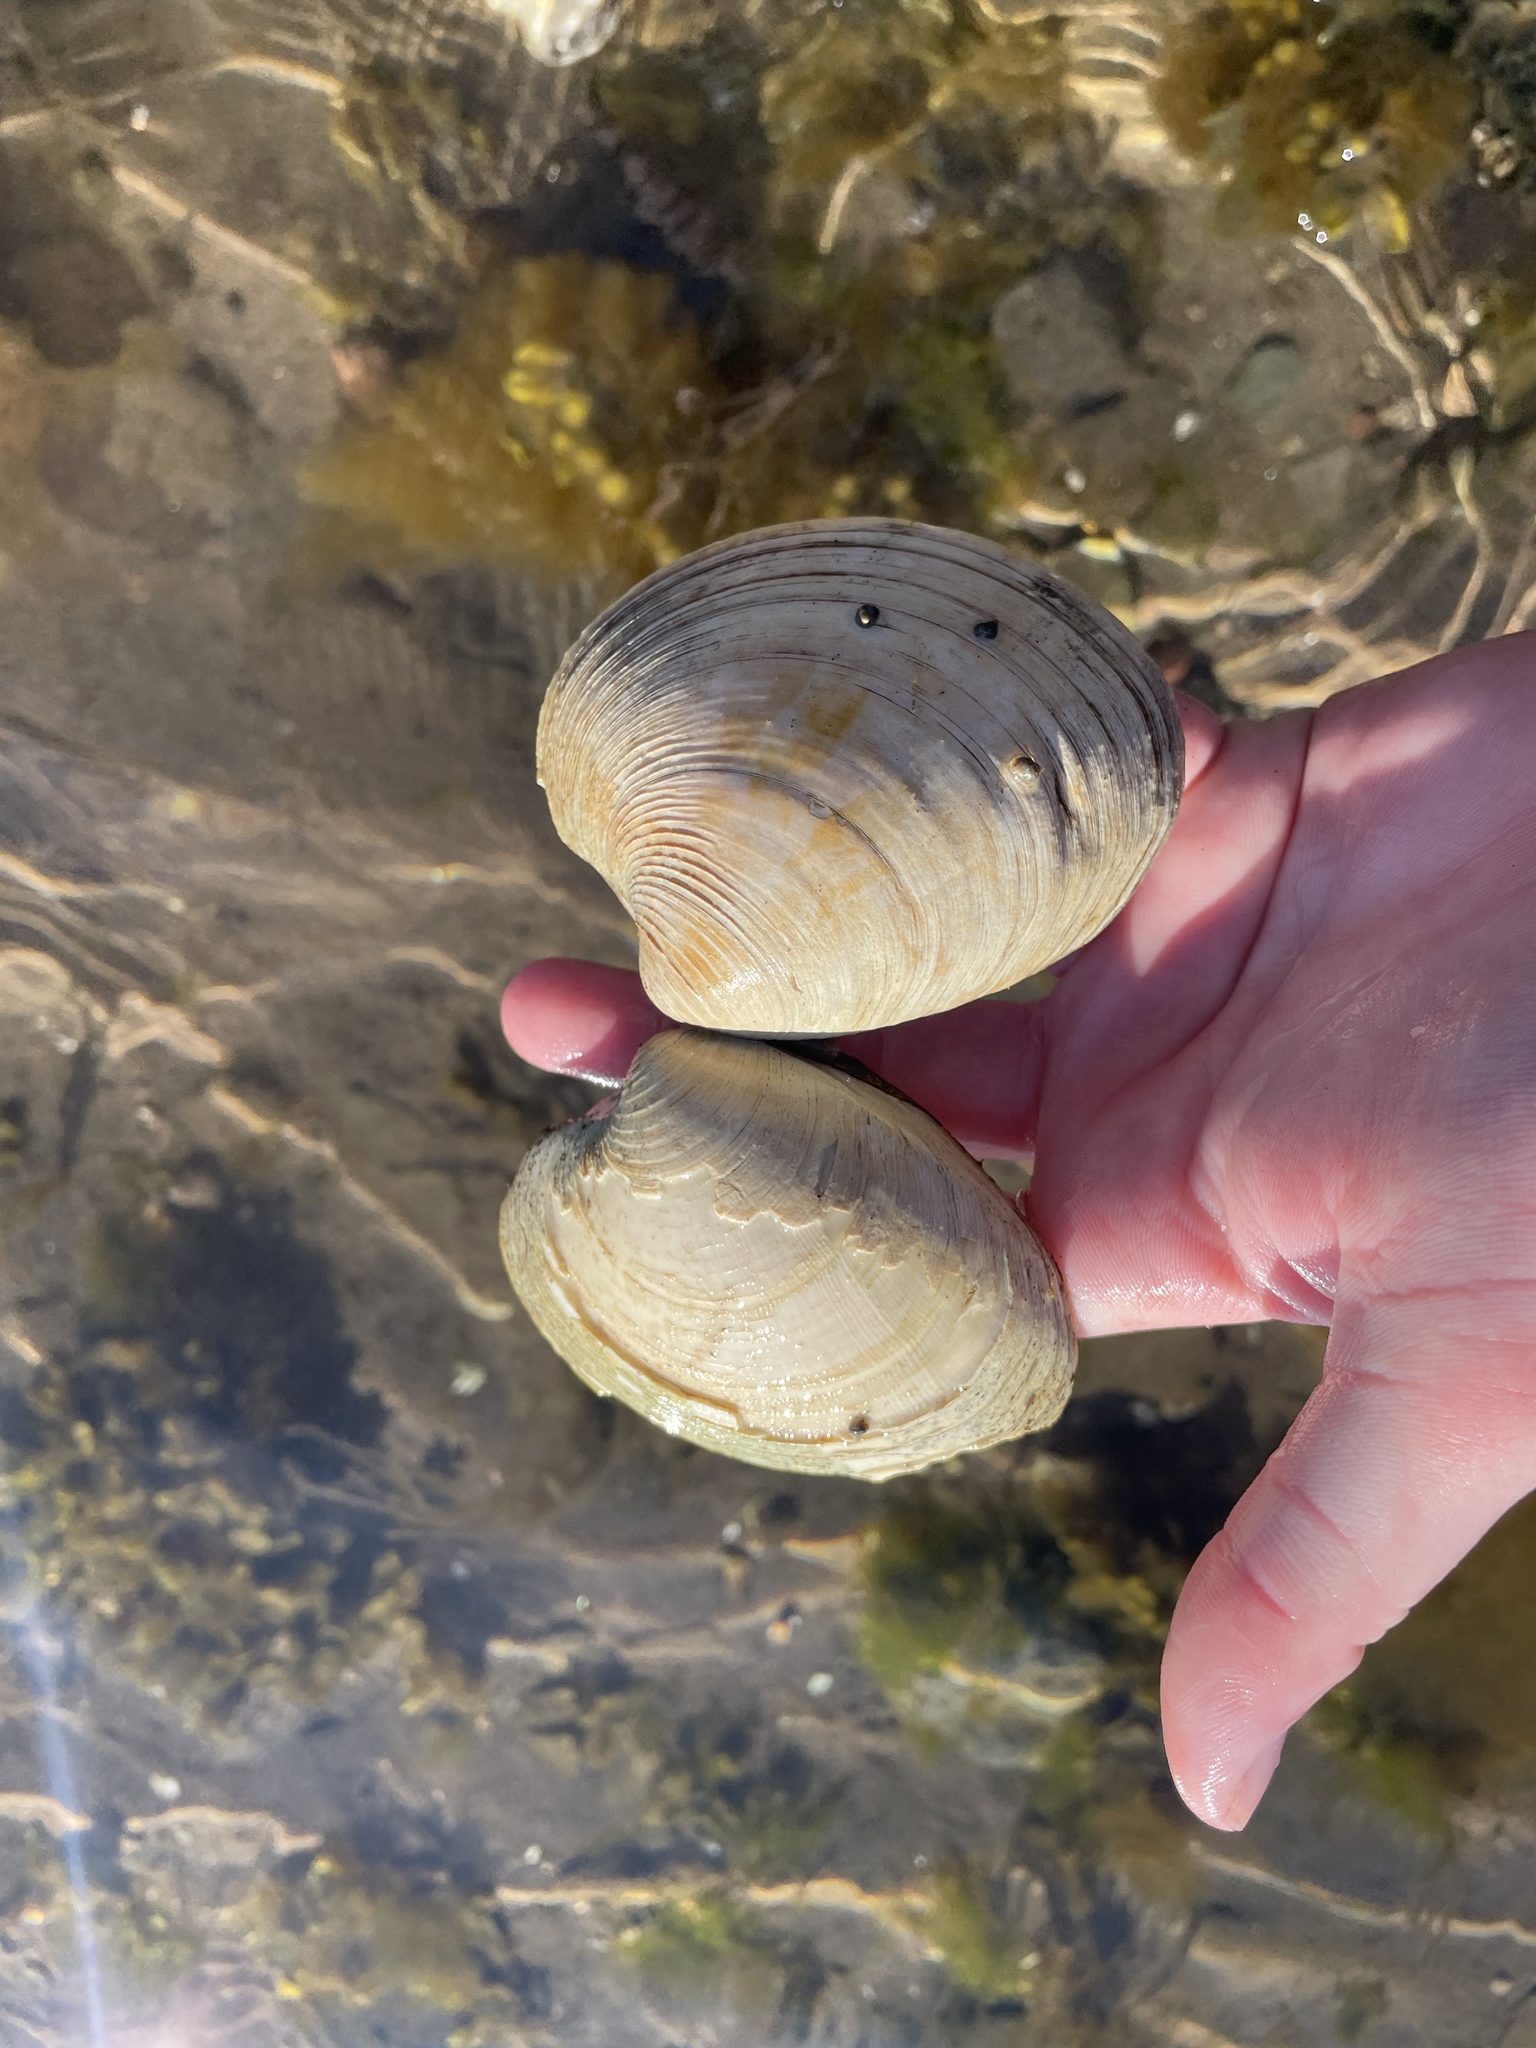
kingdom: Animalia
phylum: Mollusca
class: Bivalvia
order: Venerida
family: Veneridae
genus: Mercenaria
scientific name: Mercenaria mercenaria
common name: American hard-shelled clam
